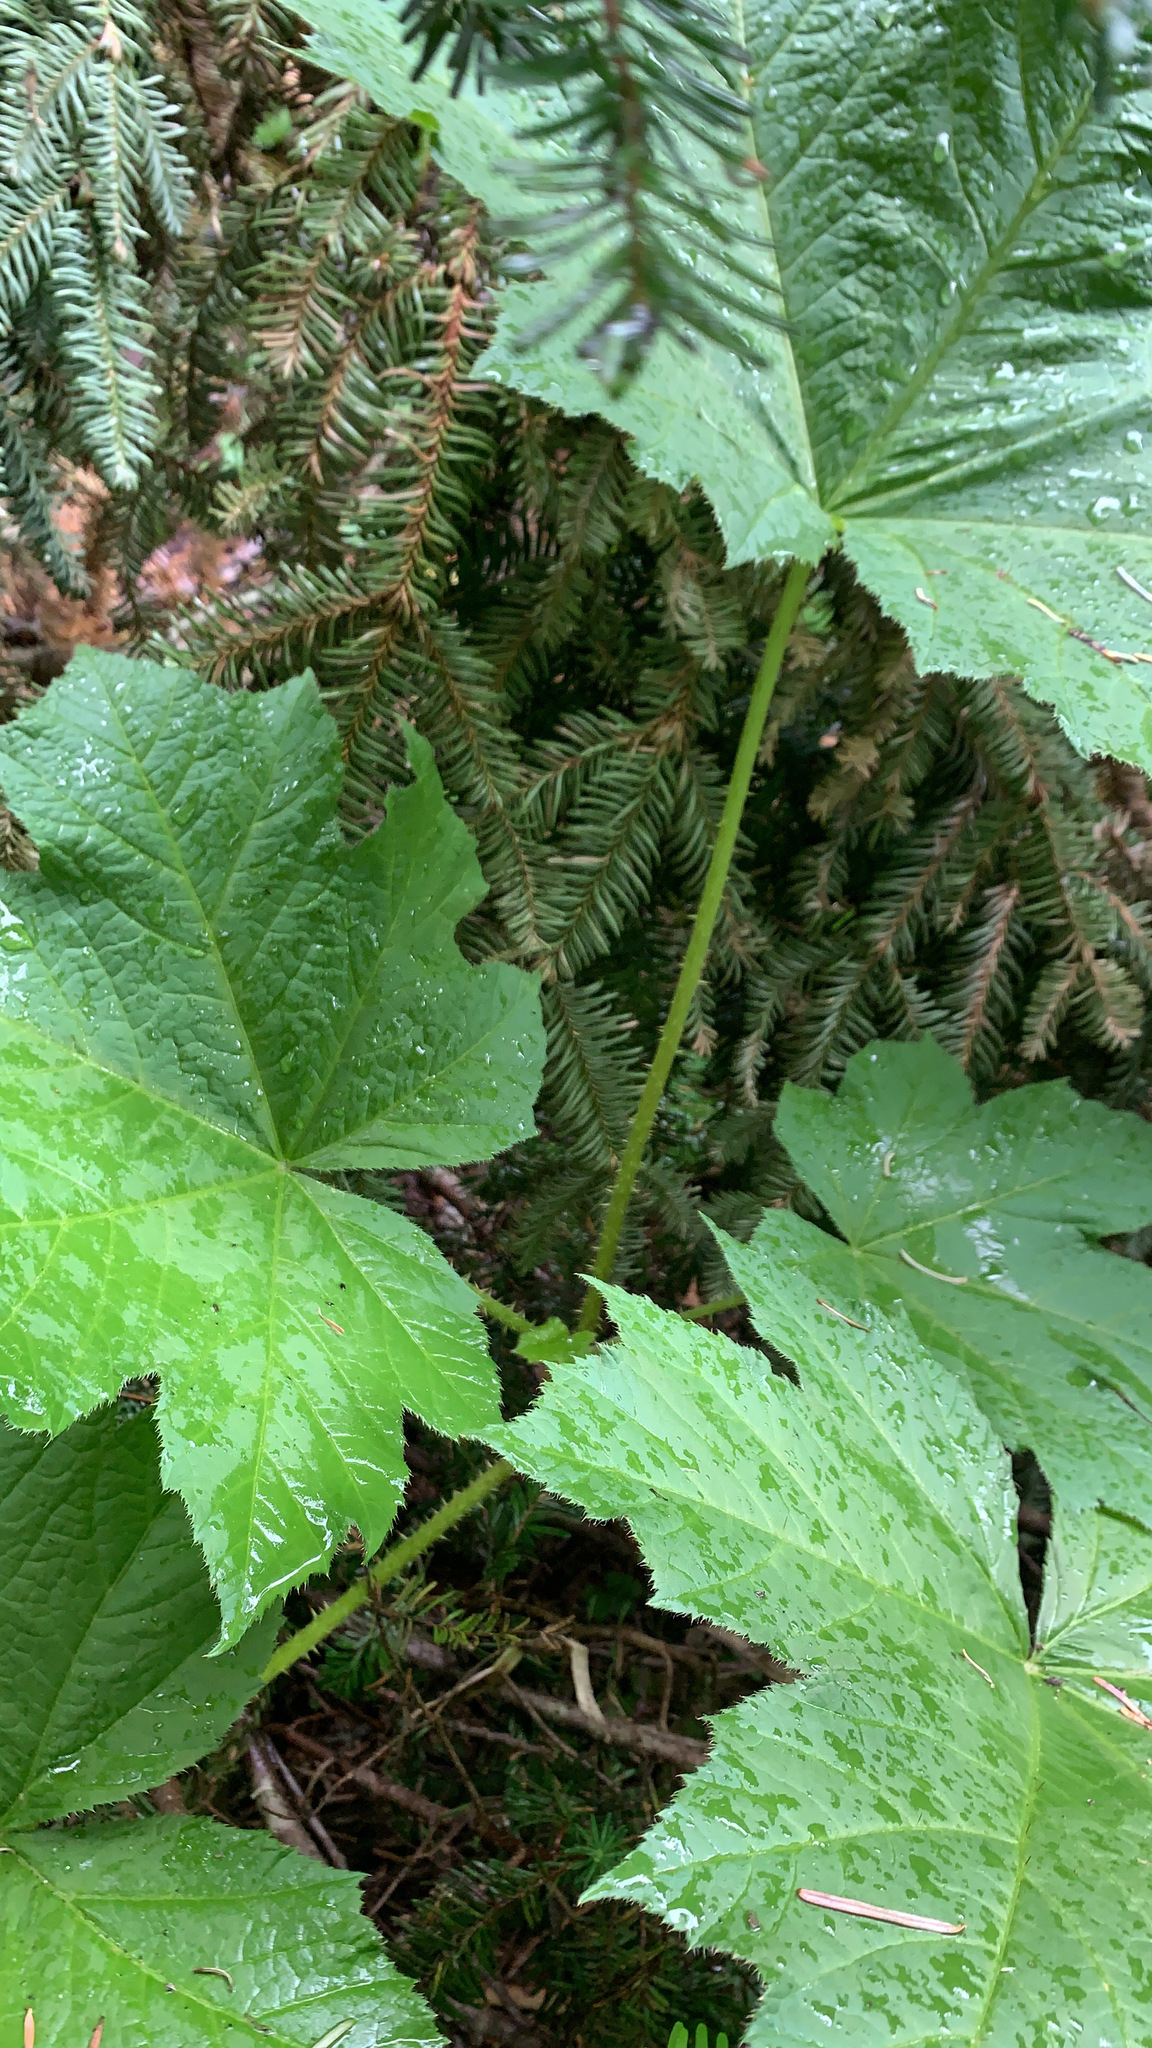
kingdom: Plantae
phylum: Tracheophyta
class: Magnoliopsida
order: Apiales
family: Araliaceae
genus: Oplopanax
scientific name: Oplopanax horridus
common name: Devil's walking-stick
